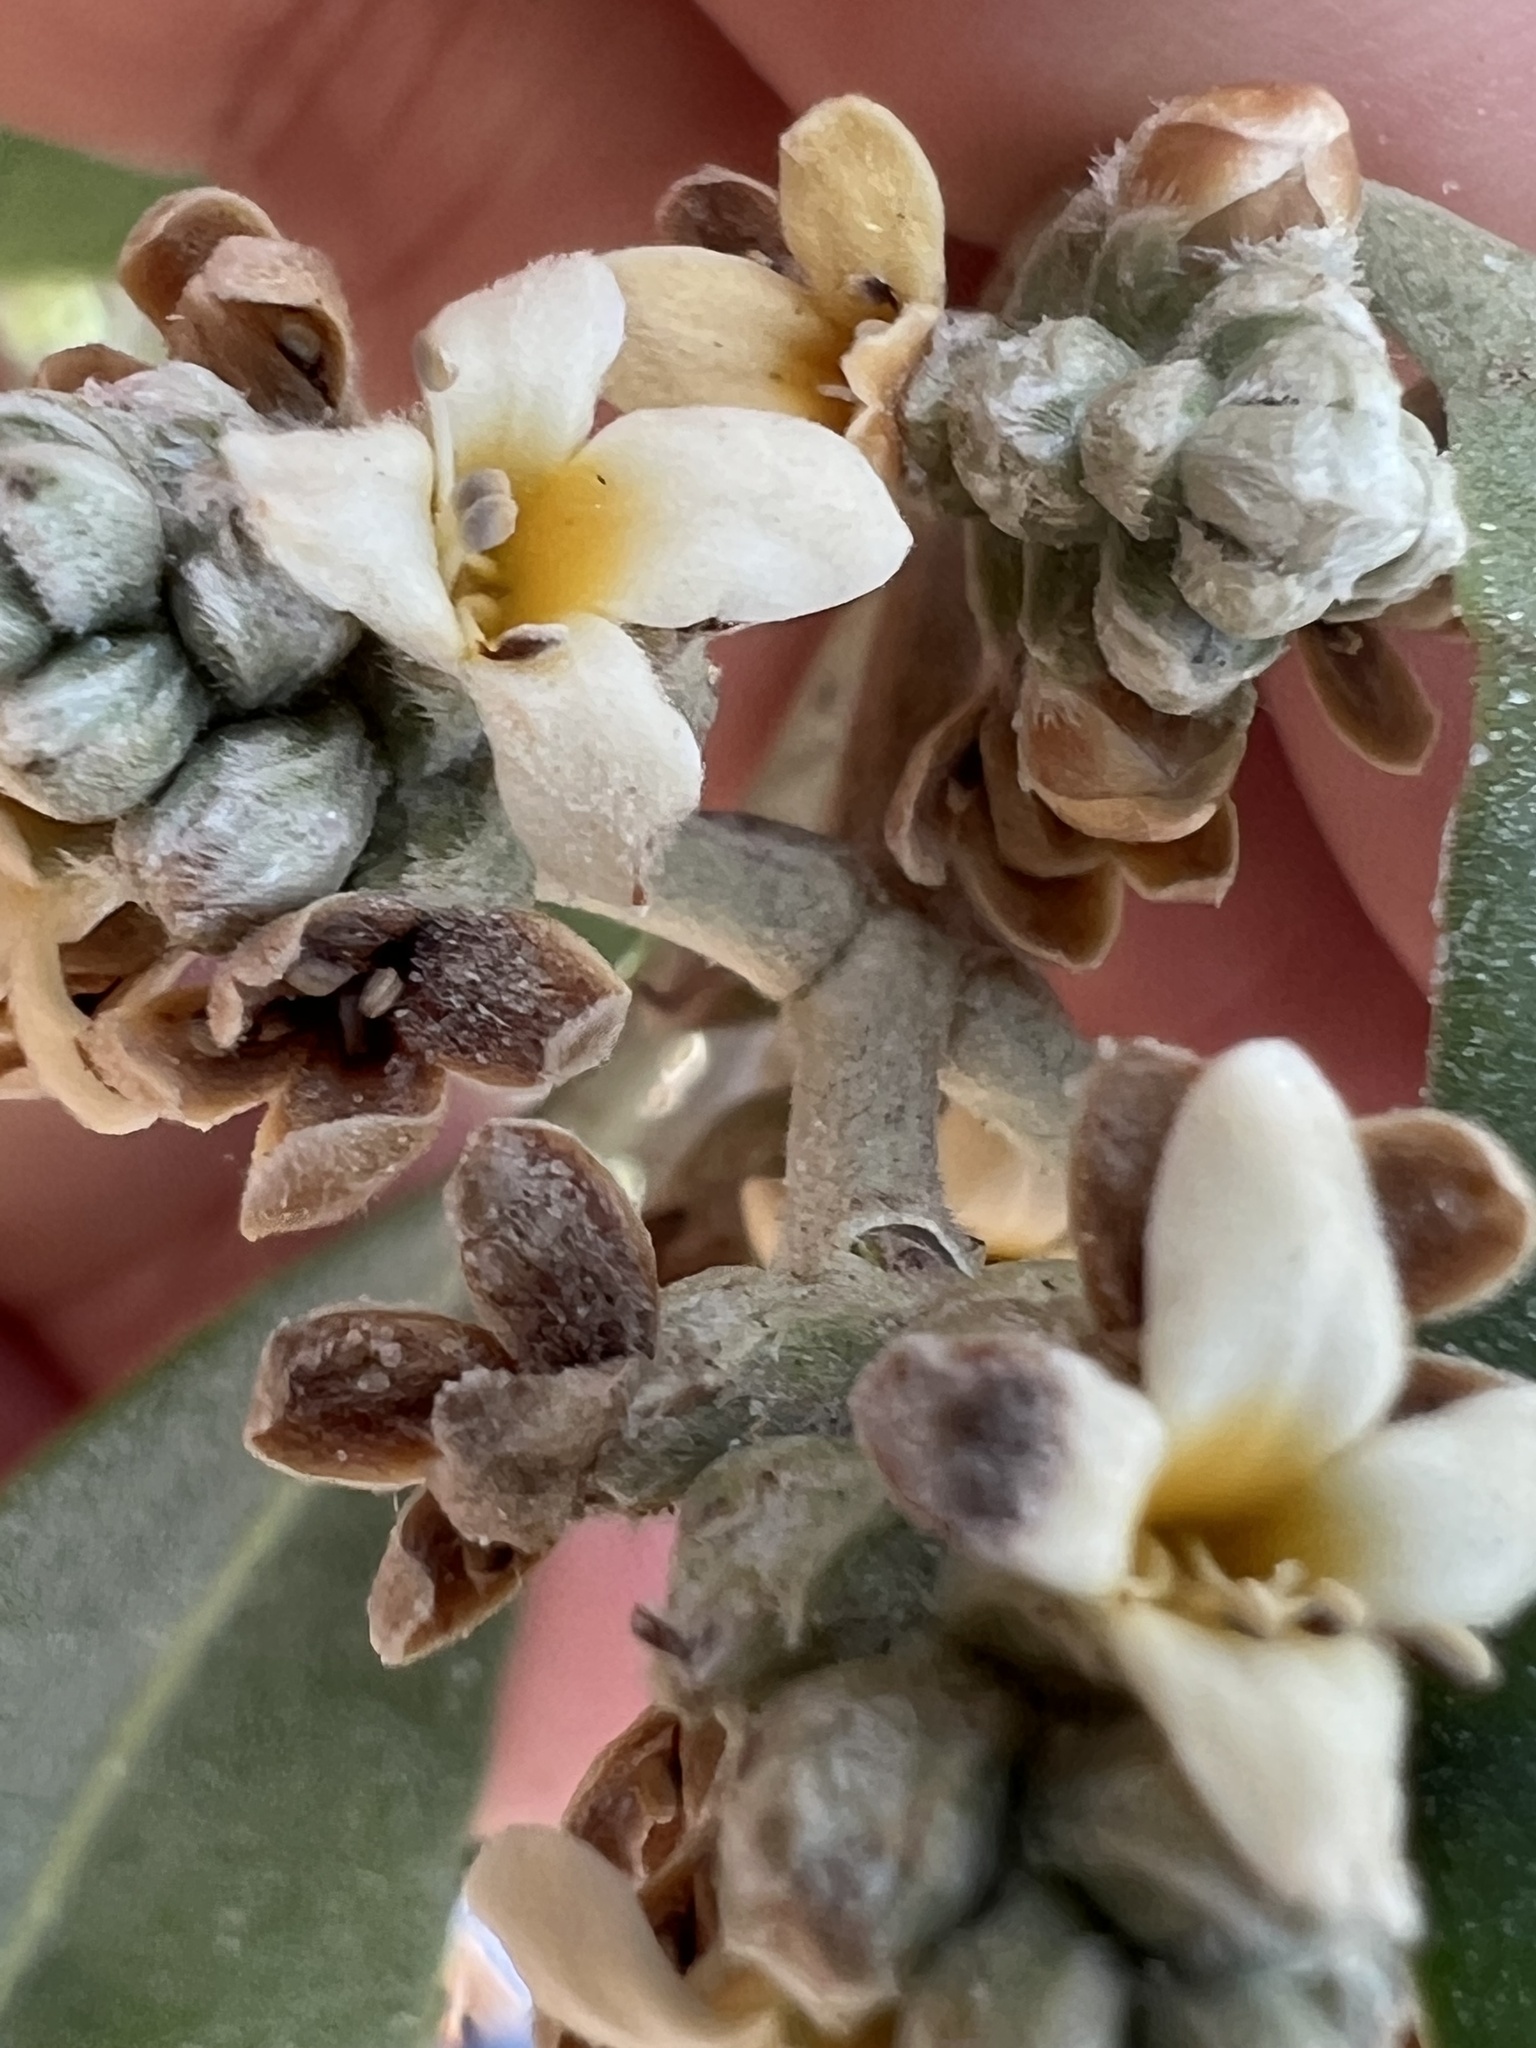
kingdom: Plantae
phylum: Tracheophyta
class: Magnoliopsida
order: Lamiales
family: Acanthaceae
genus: Avicennia
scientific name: Avicennia germinans
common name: Black mangrove
